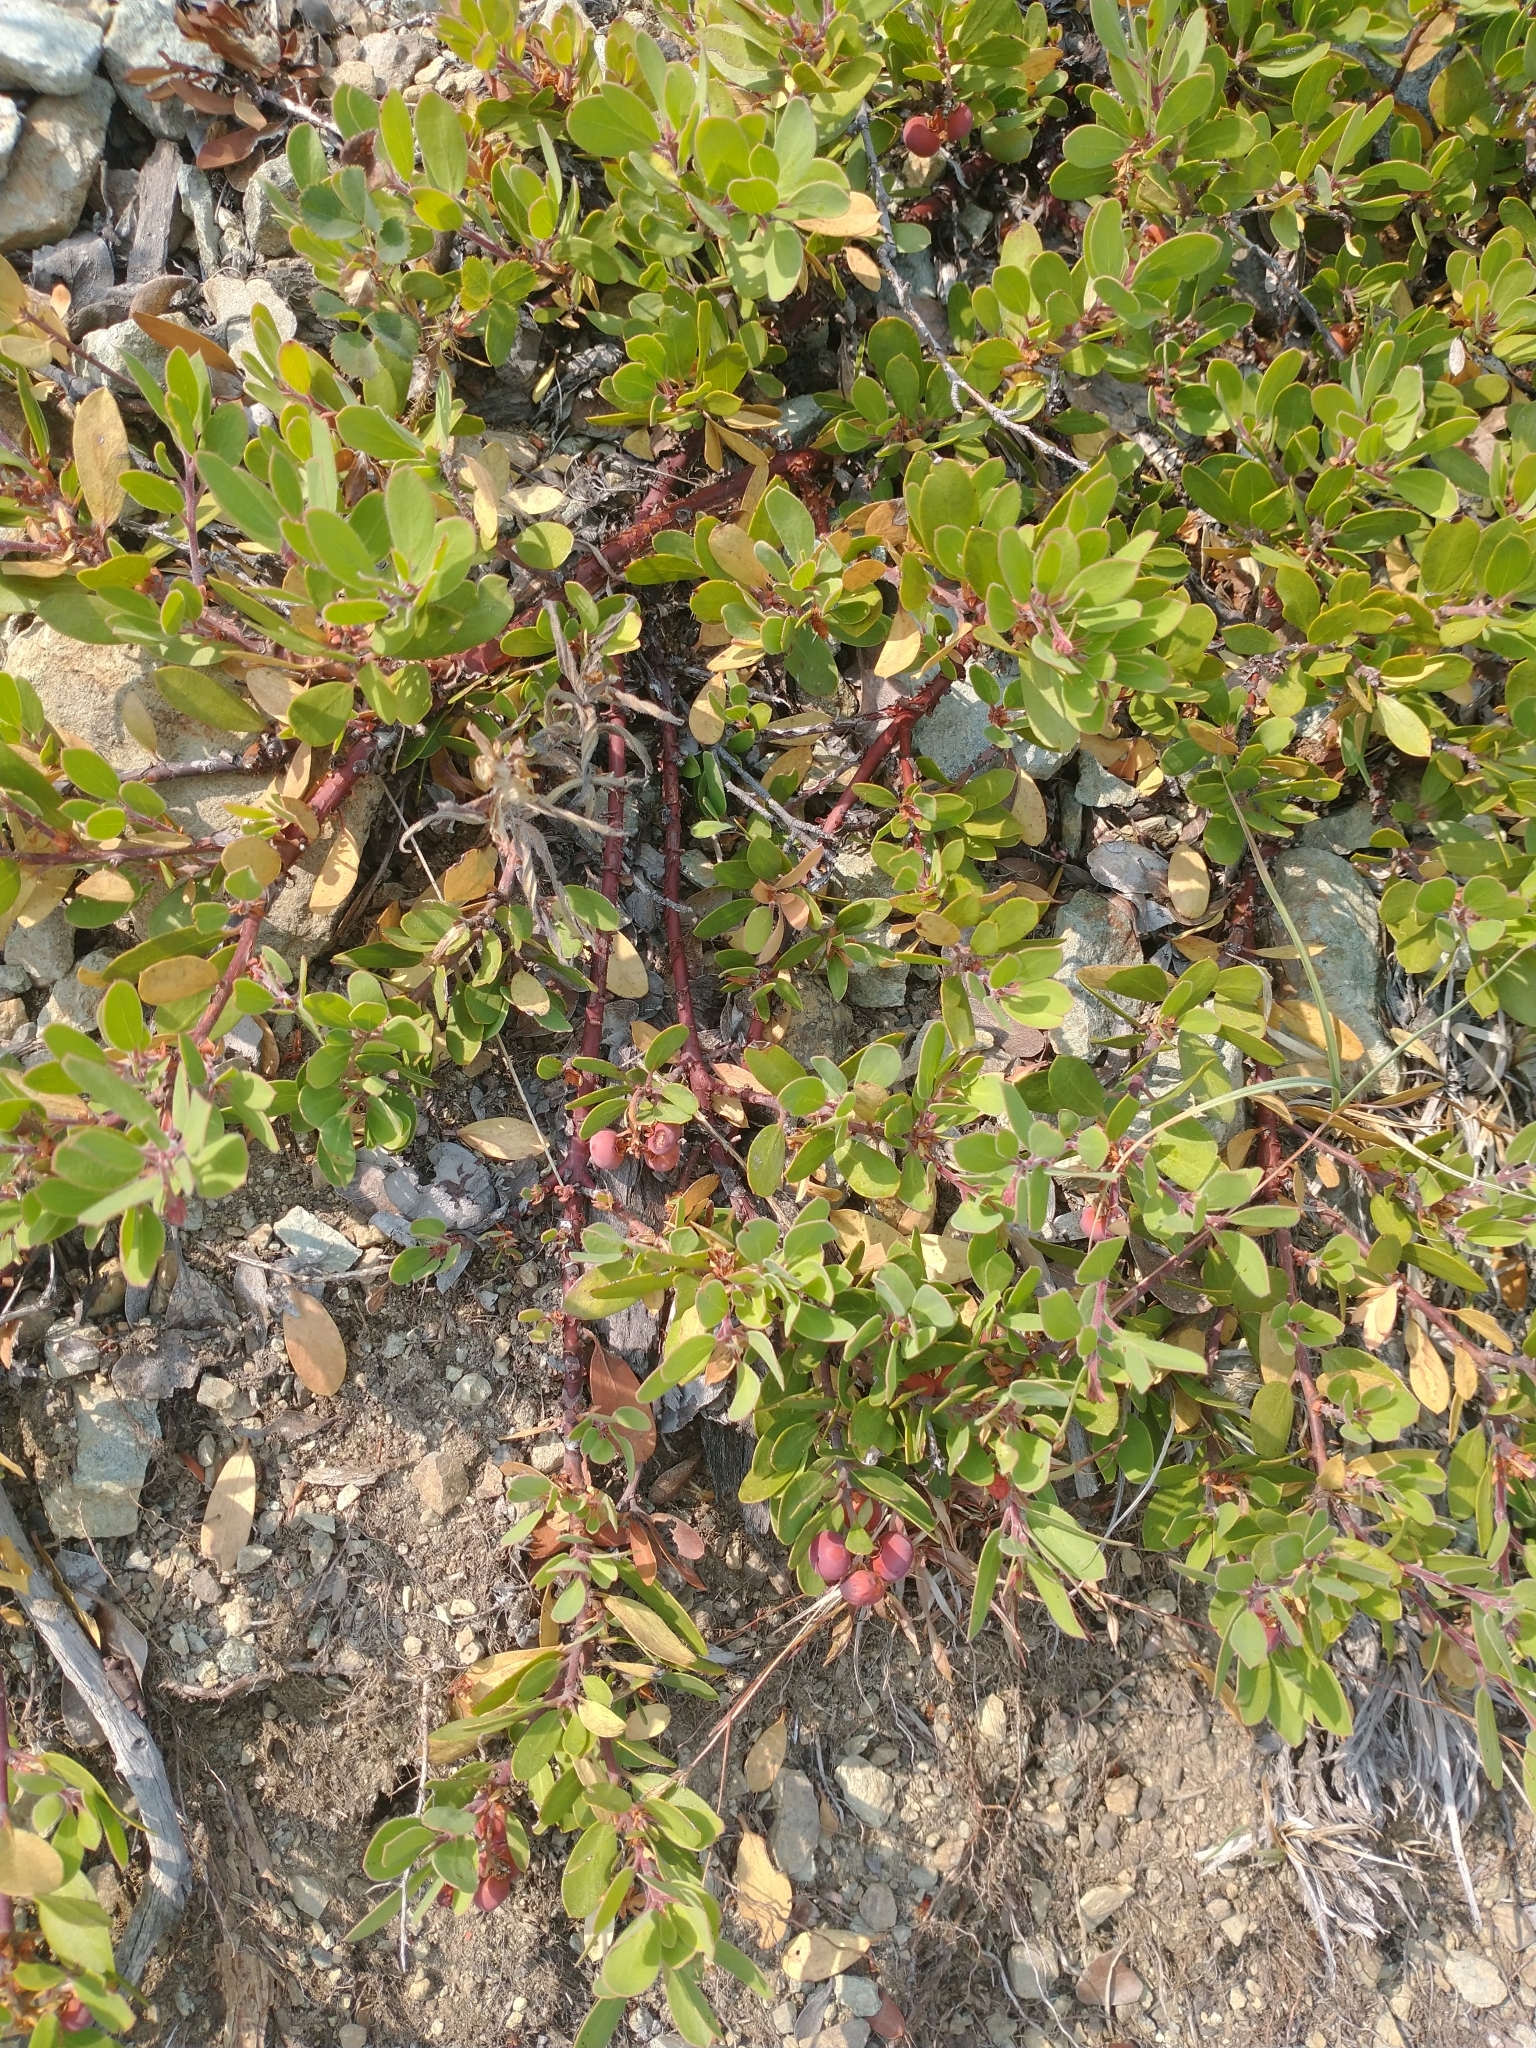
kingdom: Plantae
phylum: Tracheophyta
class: Magnoliopsida
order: Ericales
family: Ericaceae
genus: Arctostaphylos
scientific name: Arctostaphylos nevadensis
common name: Pinemat manzanita
